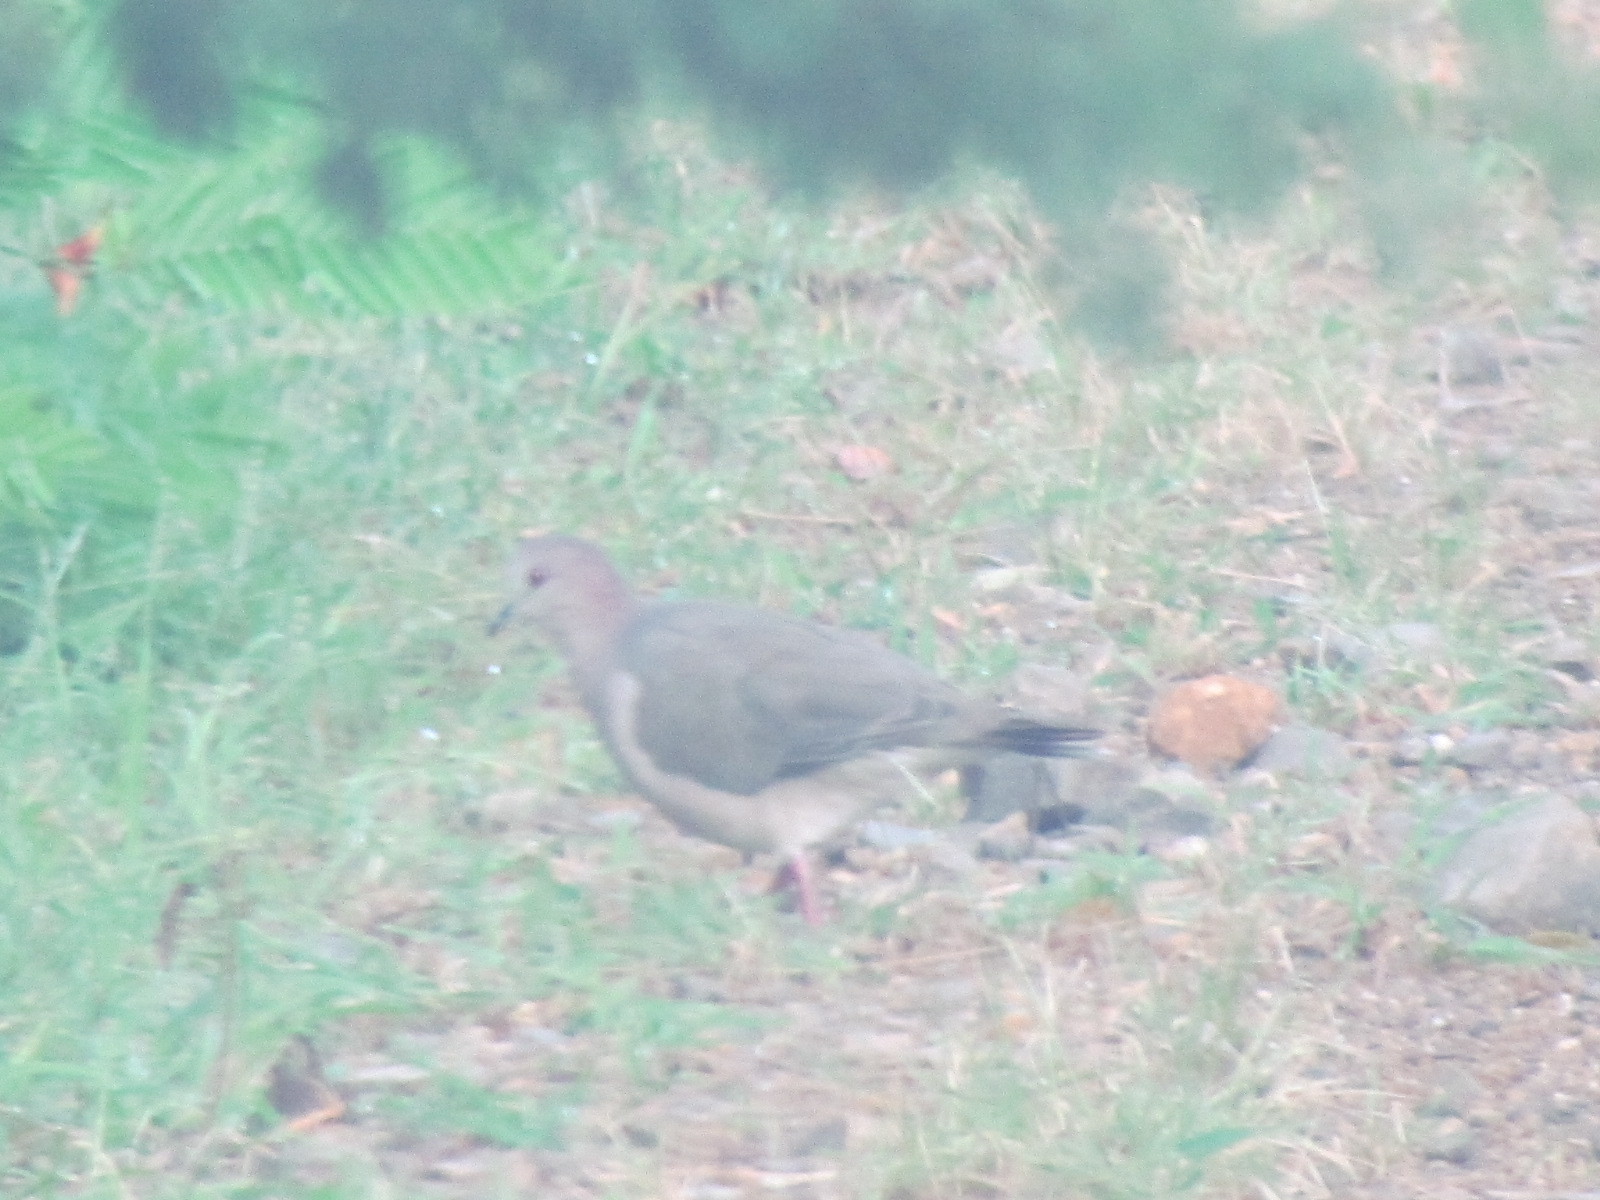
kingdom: Animalia
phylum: Chordata
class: Aves
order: Columbiformes
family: Columbidae
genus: Leptotila
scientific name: Leptotila verreauxi
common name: White-tipped dove
